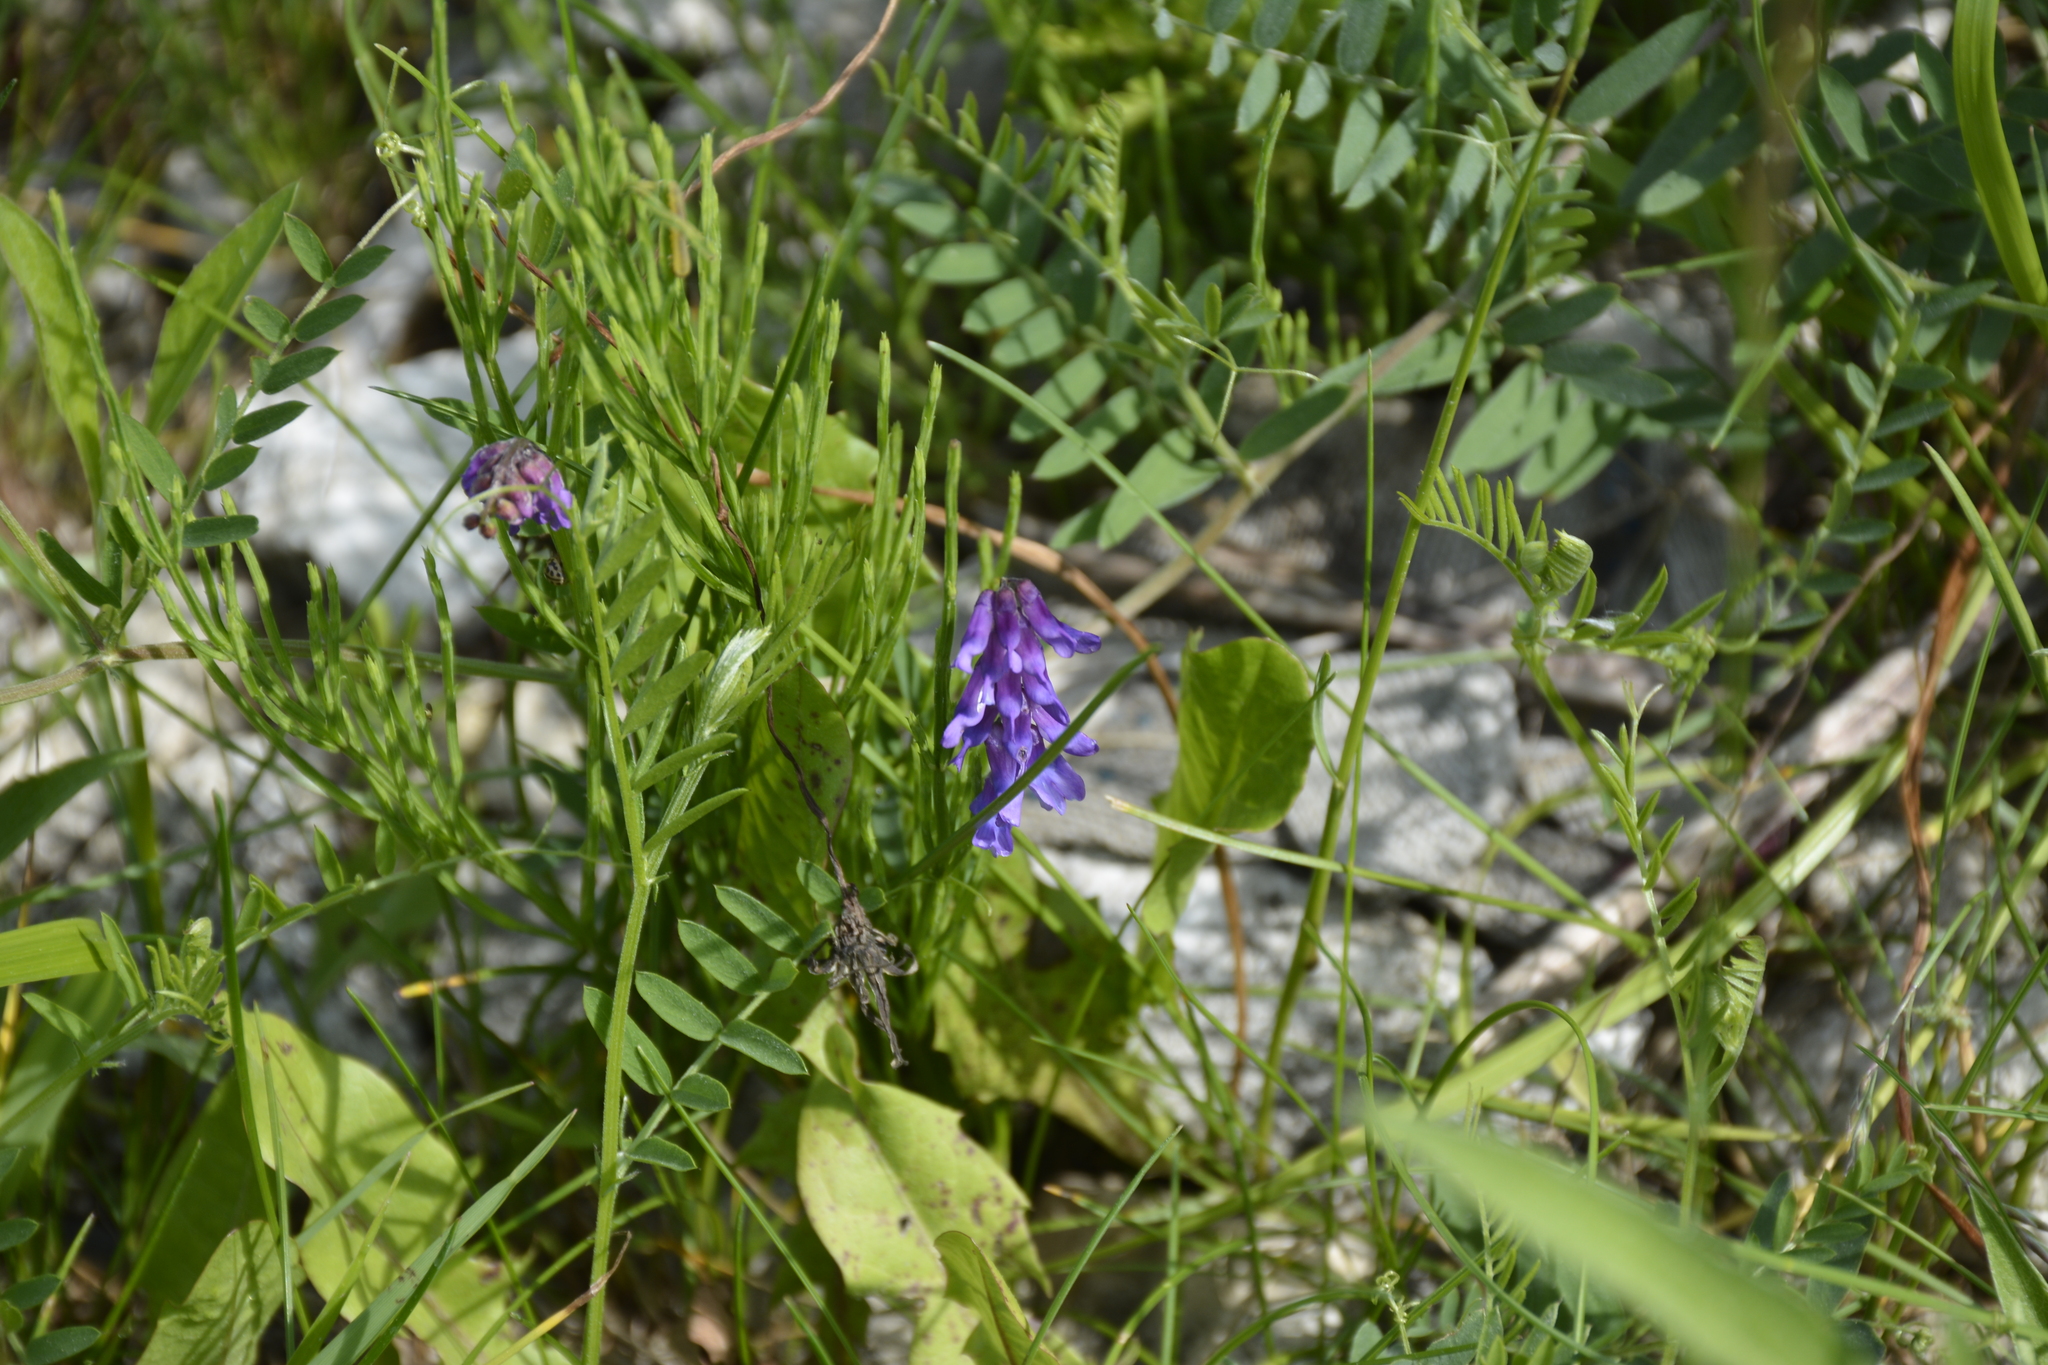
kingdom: Plantae
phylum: Tracheophyta
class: Magnoliopsida
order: Fabales
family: Fabaceae
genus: Vicia
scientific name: Vicia cracca
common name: Bird vetch
